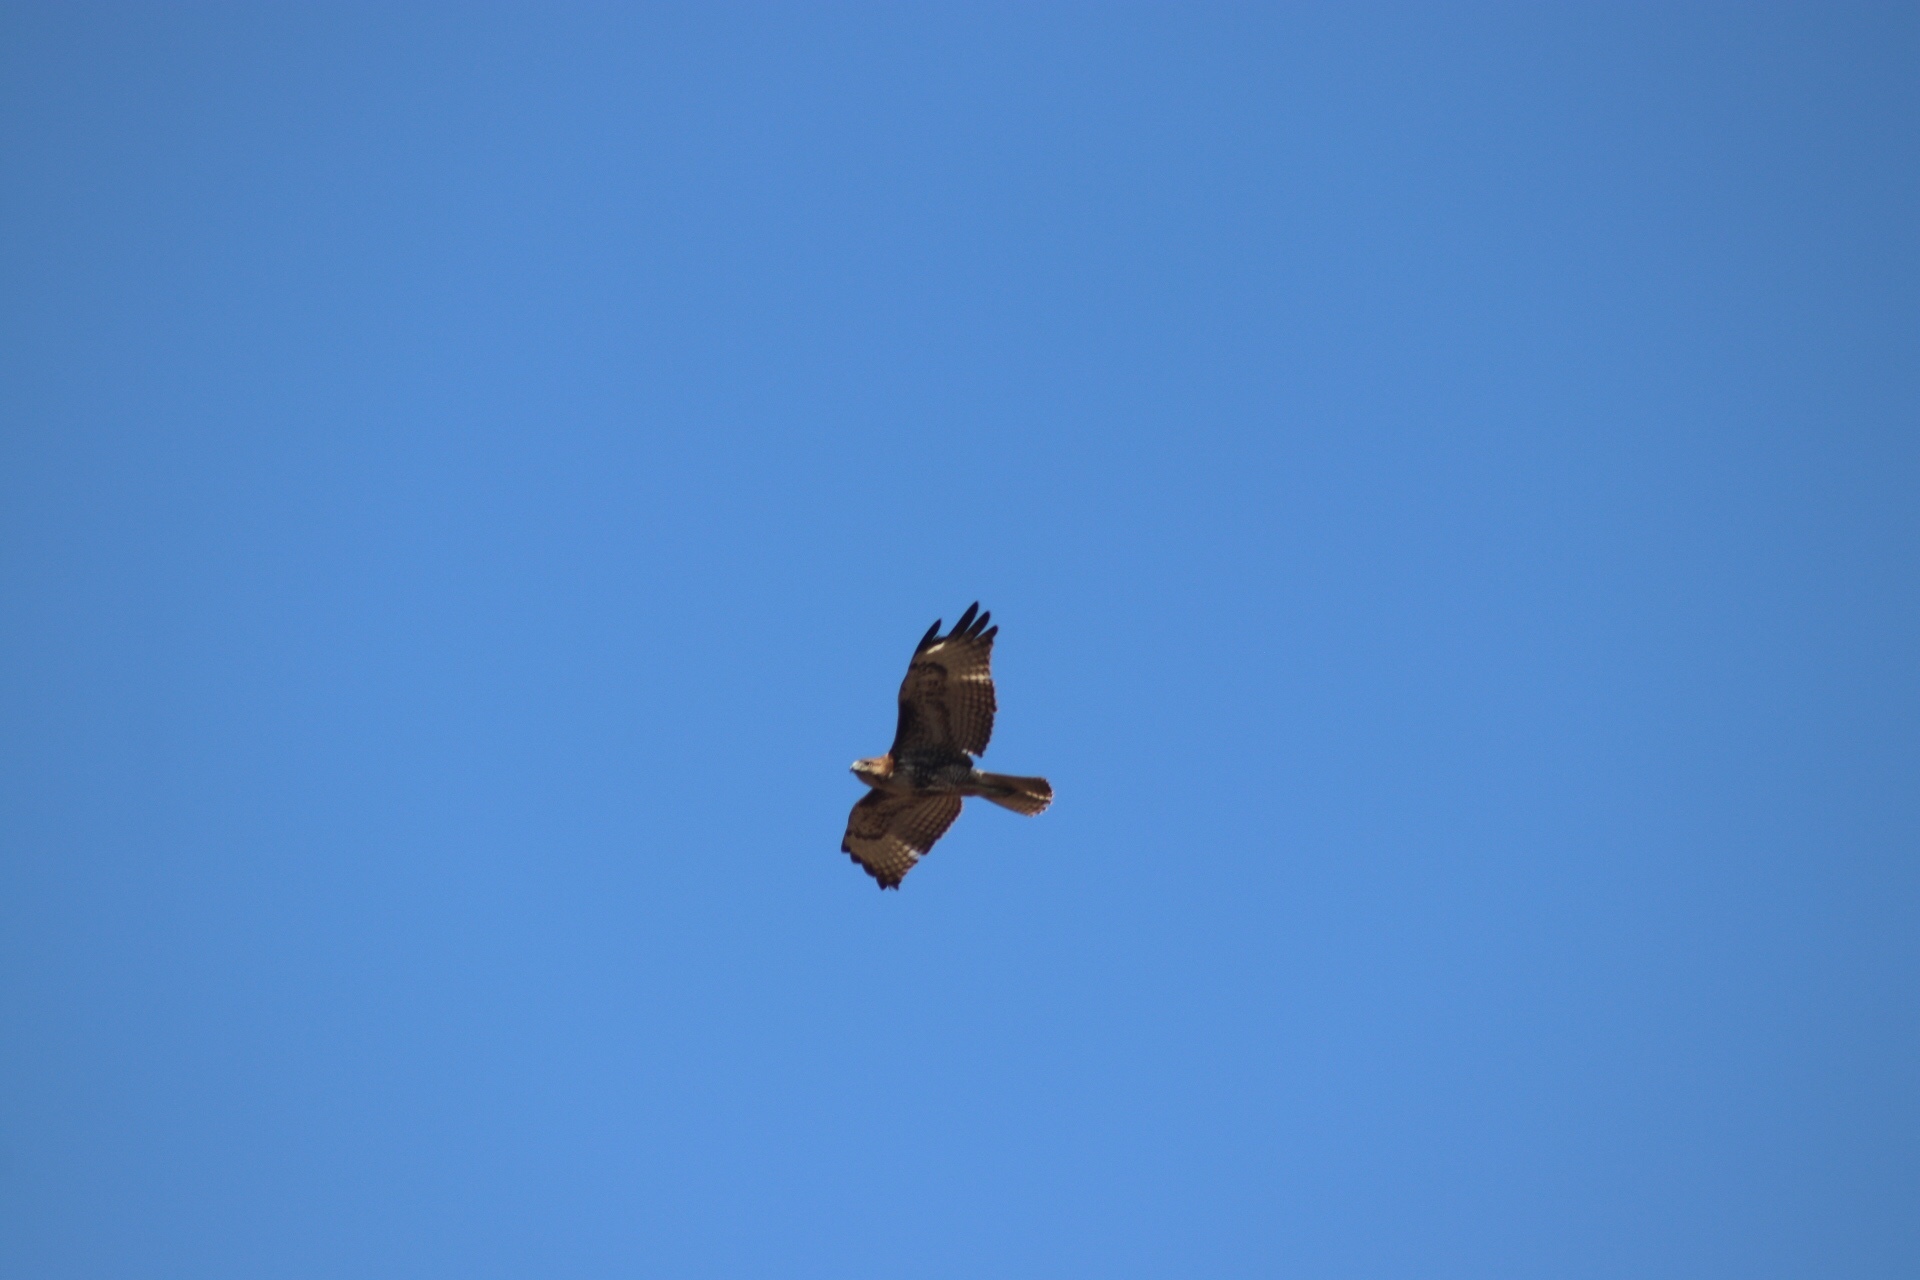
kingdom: Animalia
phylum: Chordata
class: Aves
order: Accipitriformes
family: Accipitridae
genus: Buteo
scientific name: Buteo jamaicensis
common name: Red-tailed hawk
